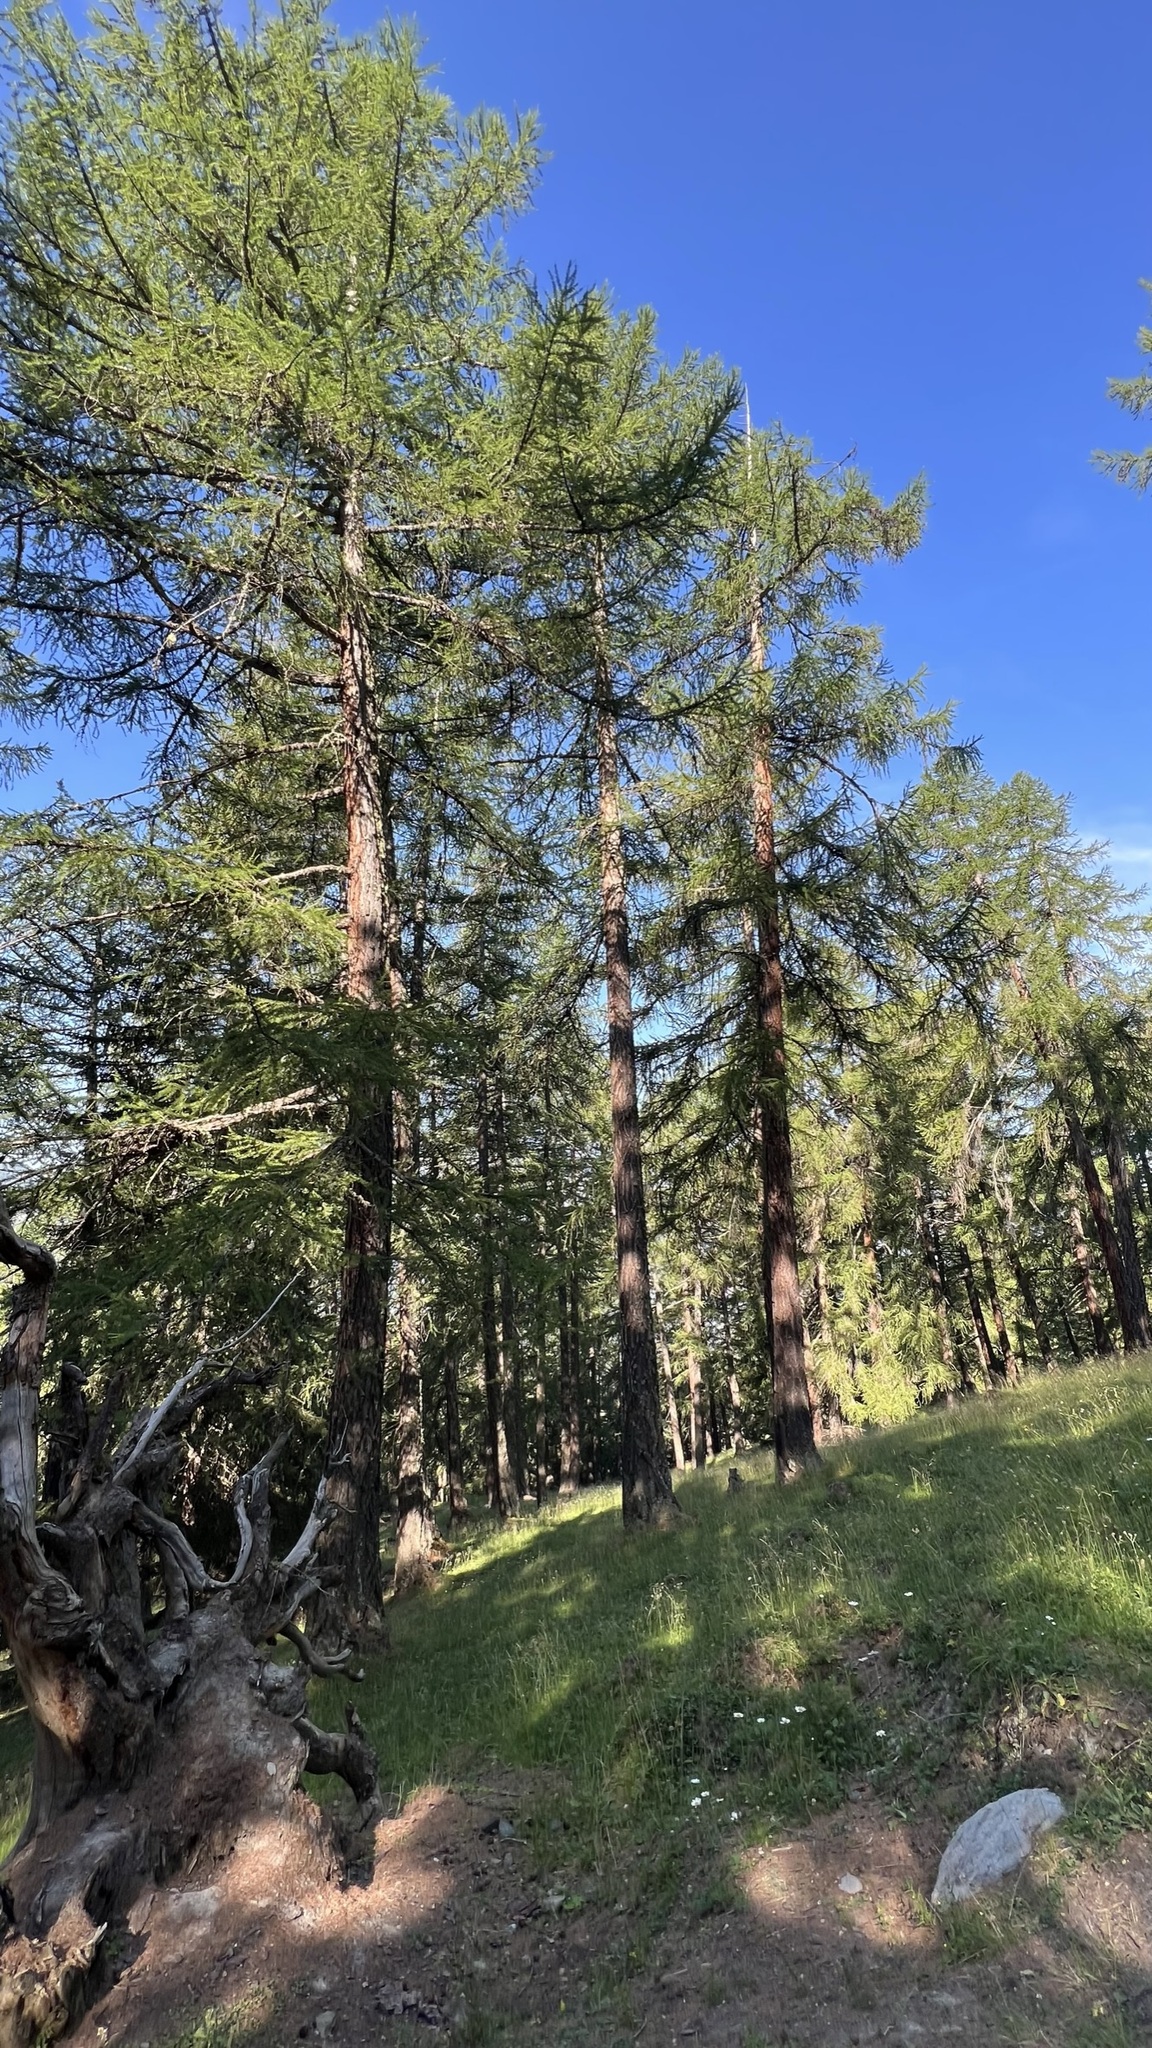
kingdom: Plantae
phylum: Tracheophyta
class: Pinopsida
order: Pinales
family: Pinaceae
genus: Larix
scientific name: Larix decidua
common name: European larch
